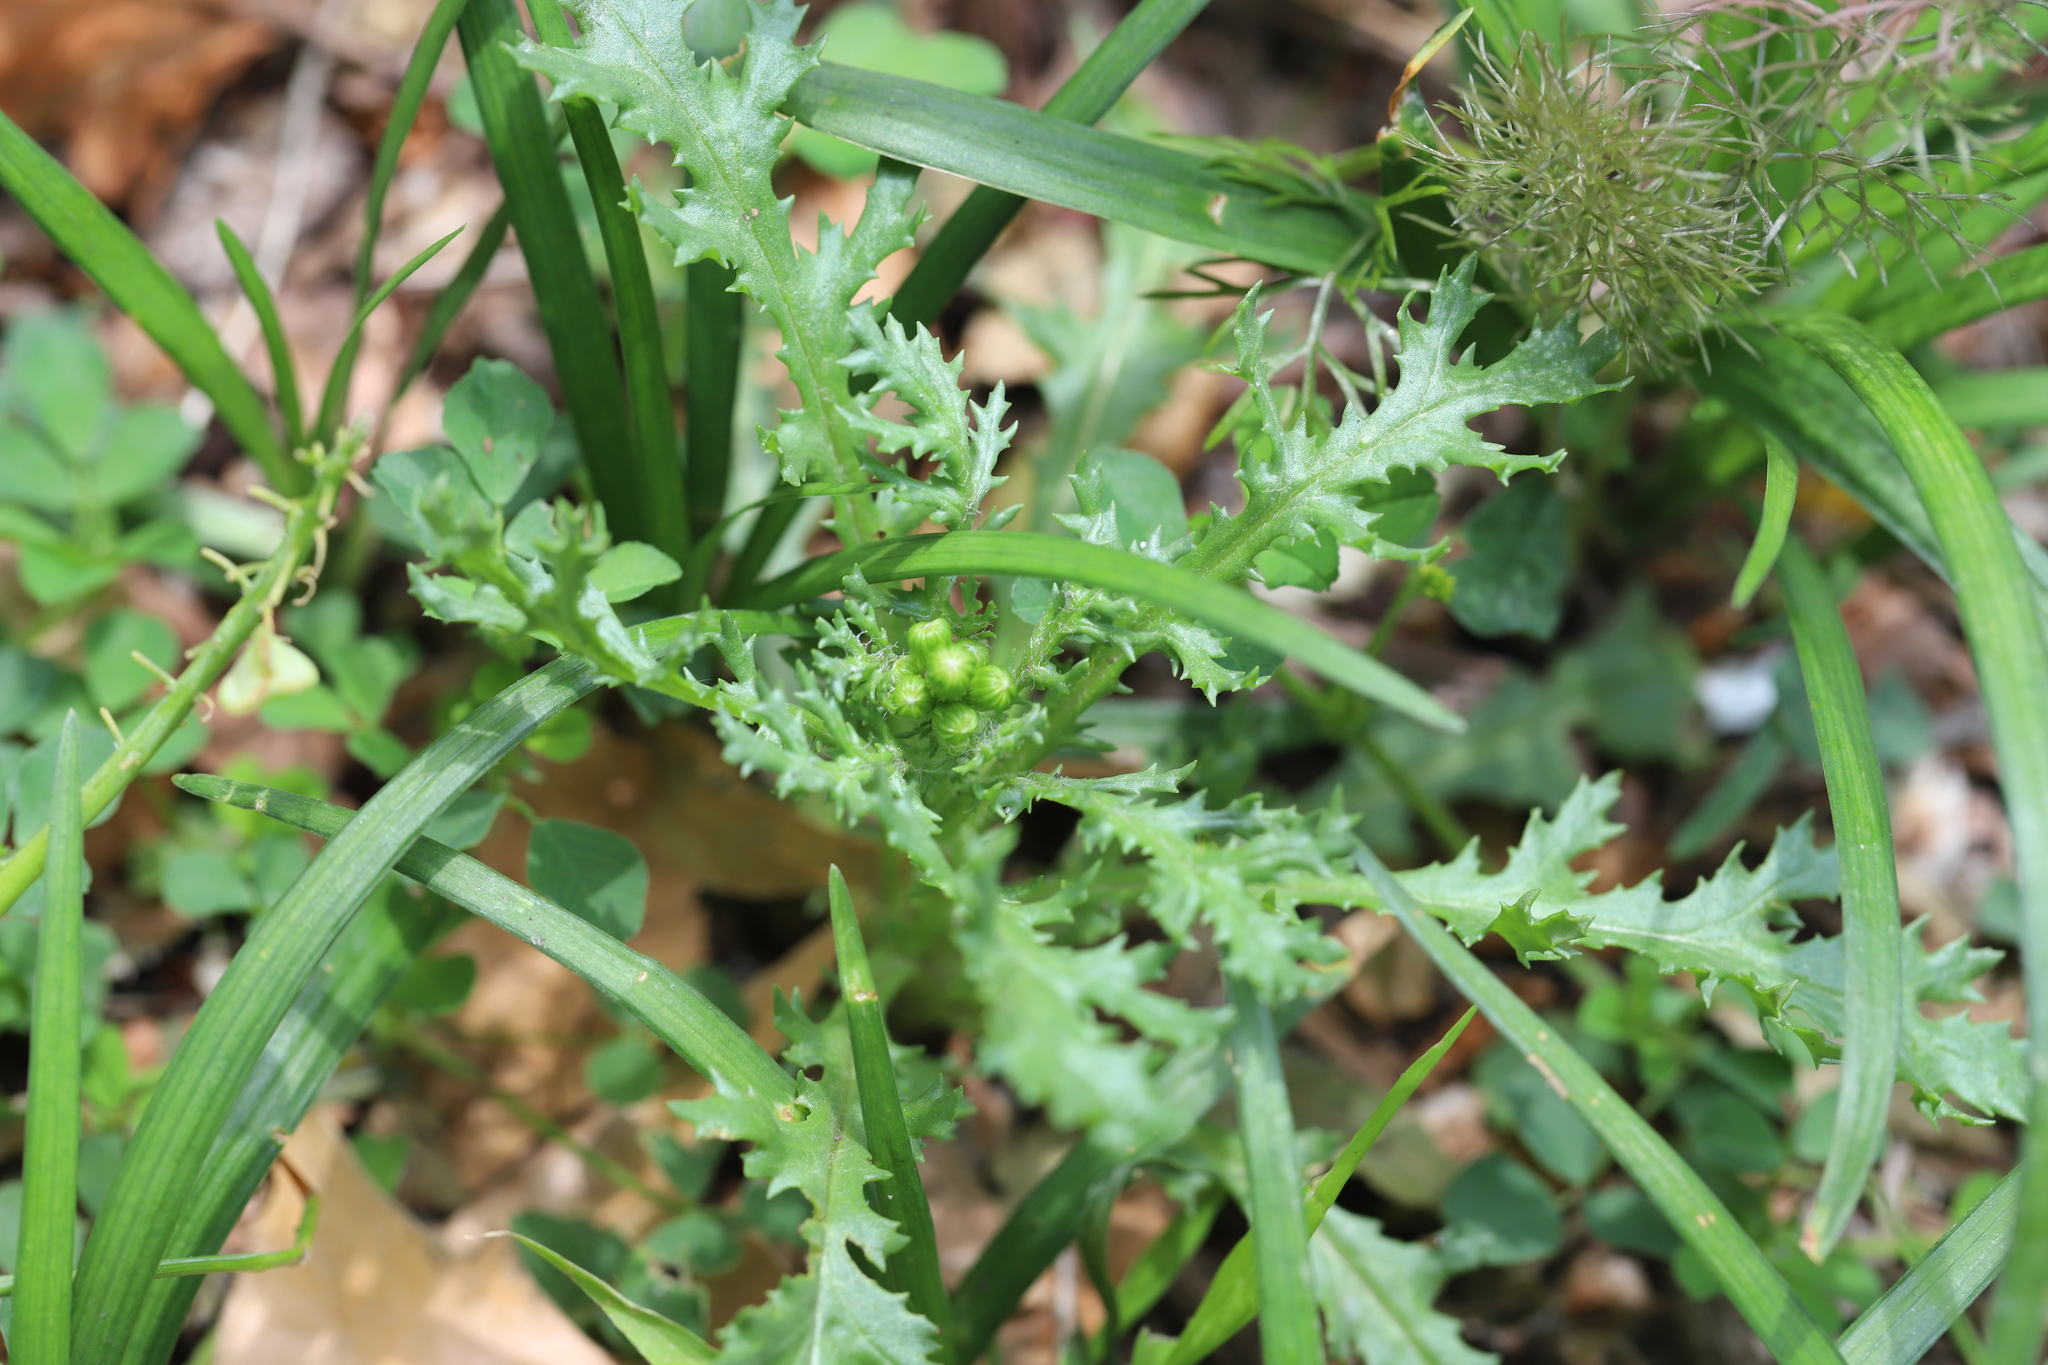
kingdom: Plantae
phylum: Tracheophyta
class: Magnoliopsida
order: Asterales
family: Asteraceae
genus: Senecio
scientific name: Senecio vulgaris
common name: Old-man-in-the-spring
